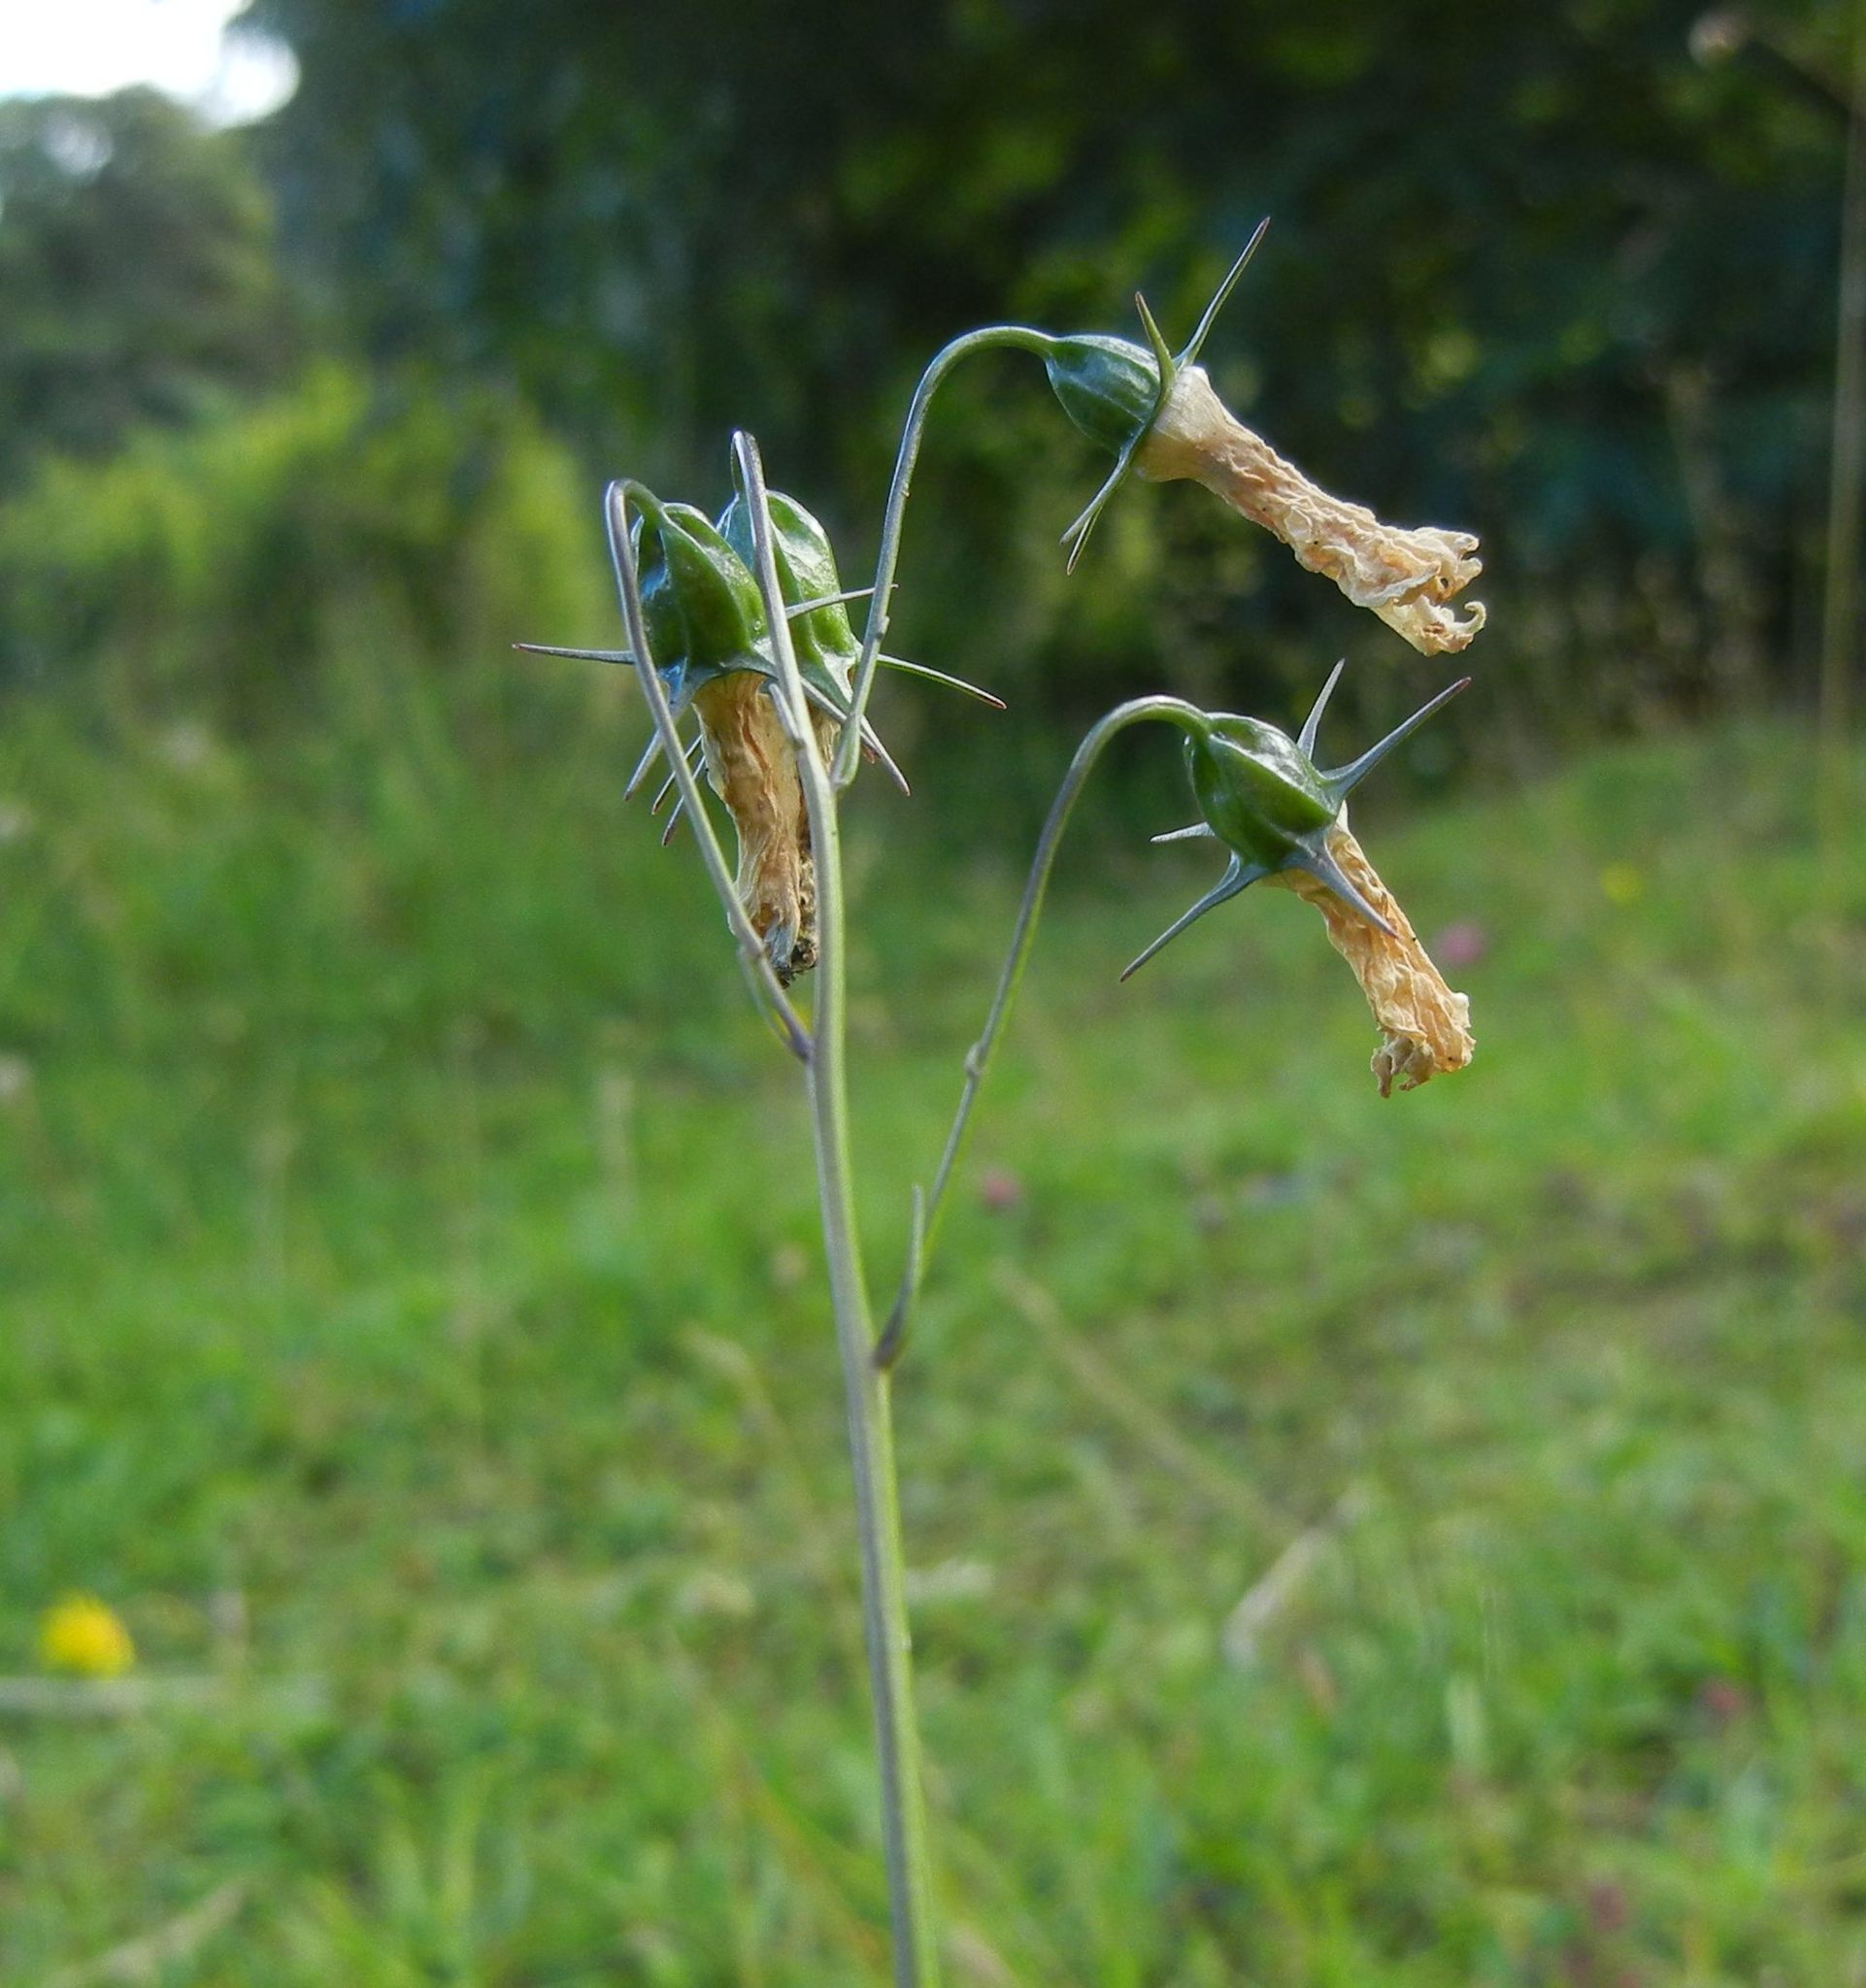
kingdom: Plantae
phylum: Tracheophyta
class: Magnoliopsida
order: Asterales
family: Campanulaceae
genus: Campanula
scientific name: Campanula rotundifolia
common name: Harebell
